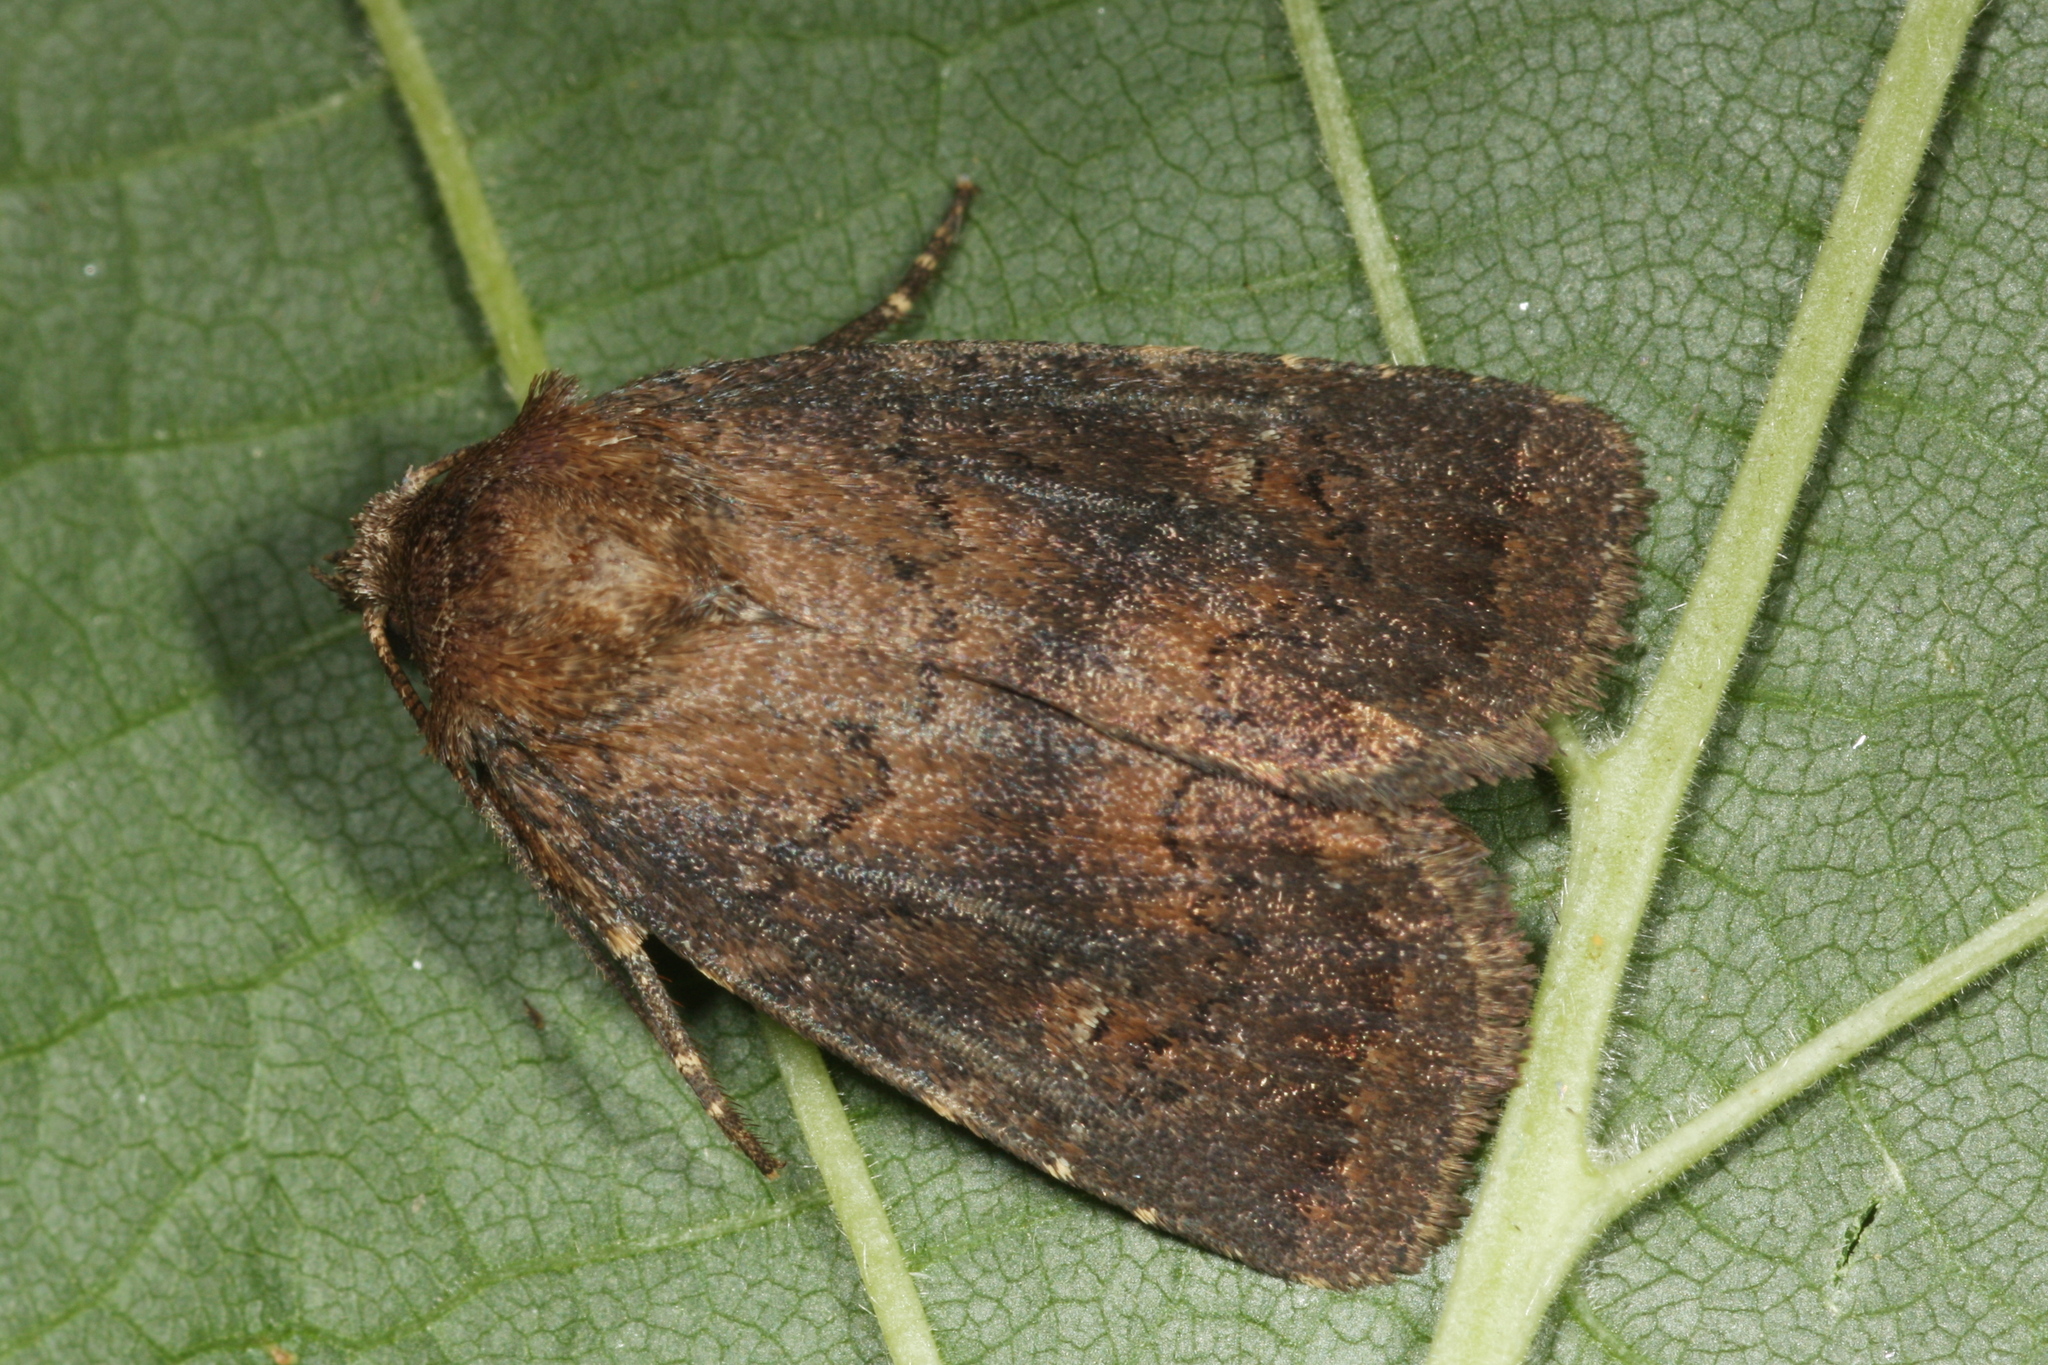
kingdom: Animalia
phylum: Arthropoda
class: Insecta
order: Lepidoptera
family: Noctuidae
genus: Charanyca
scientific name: Charanyca ferruginea
